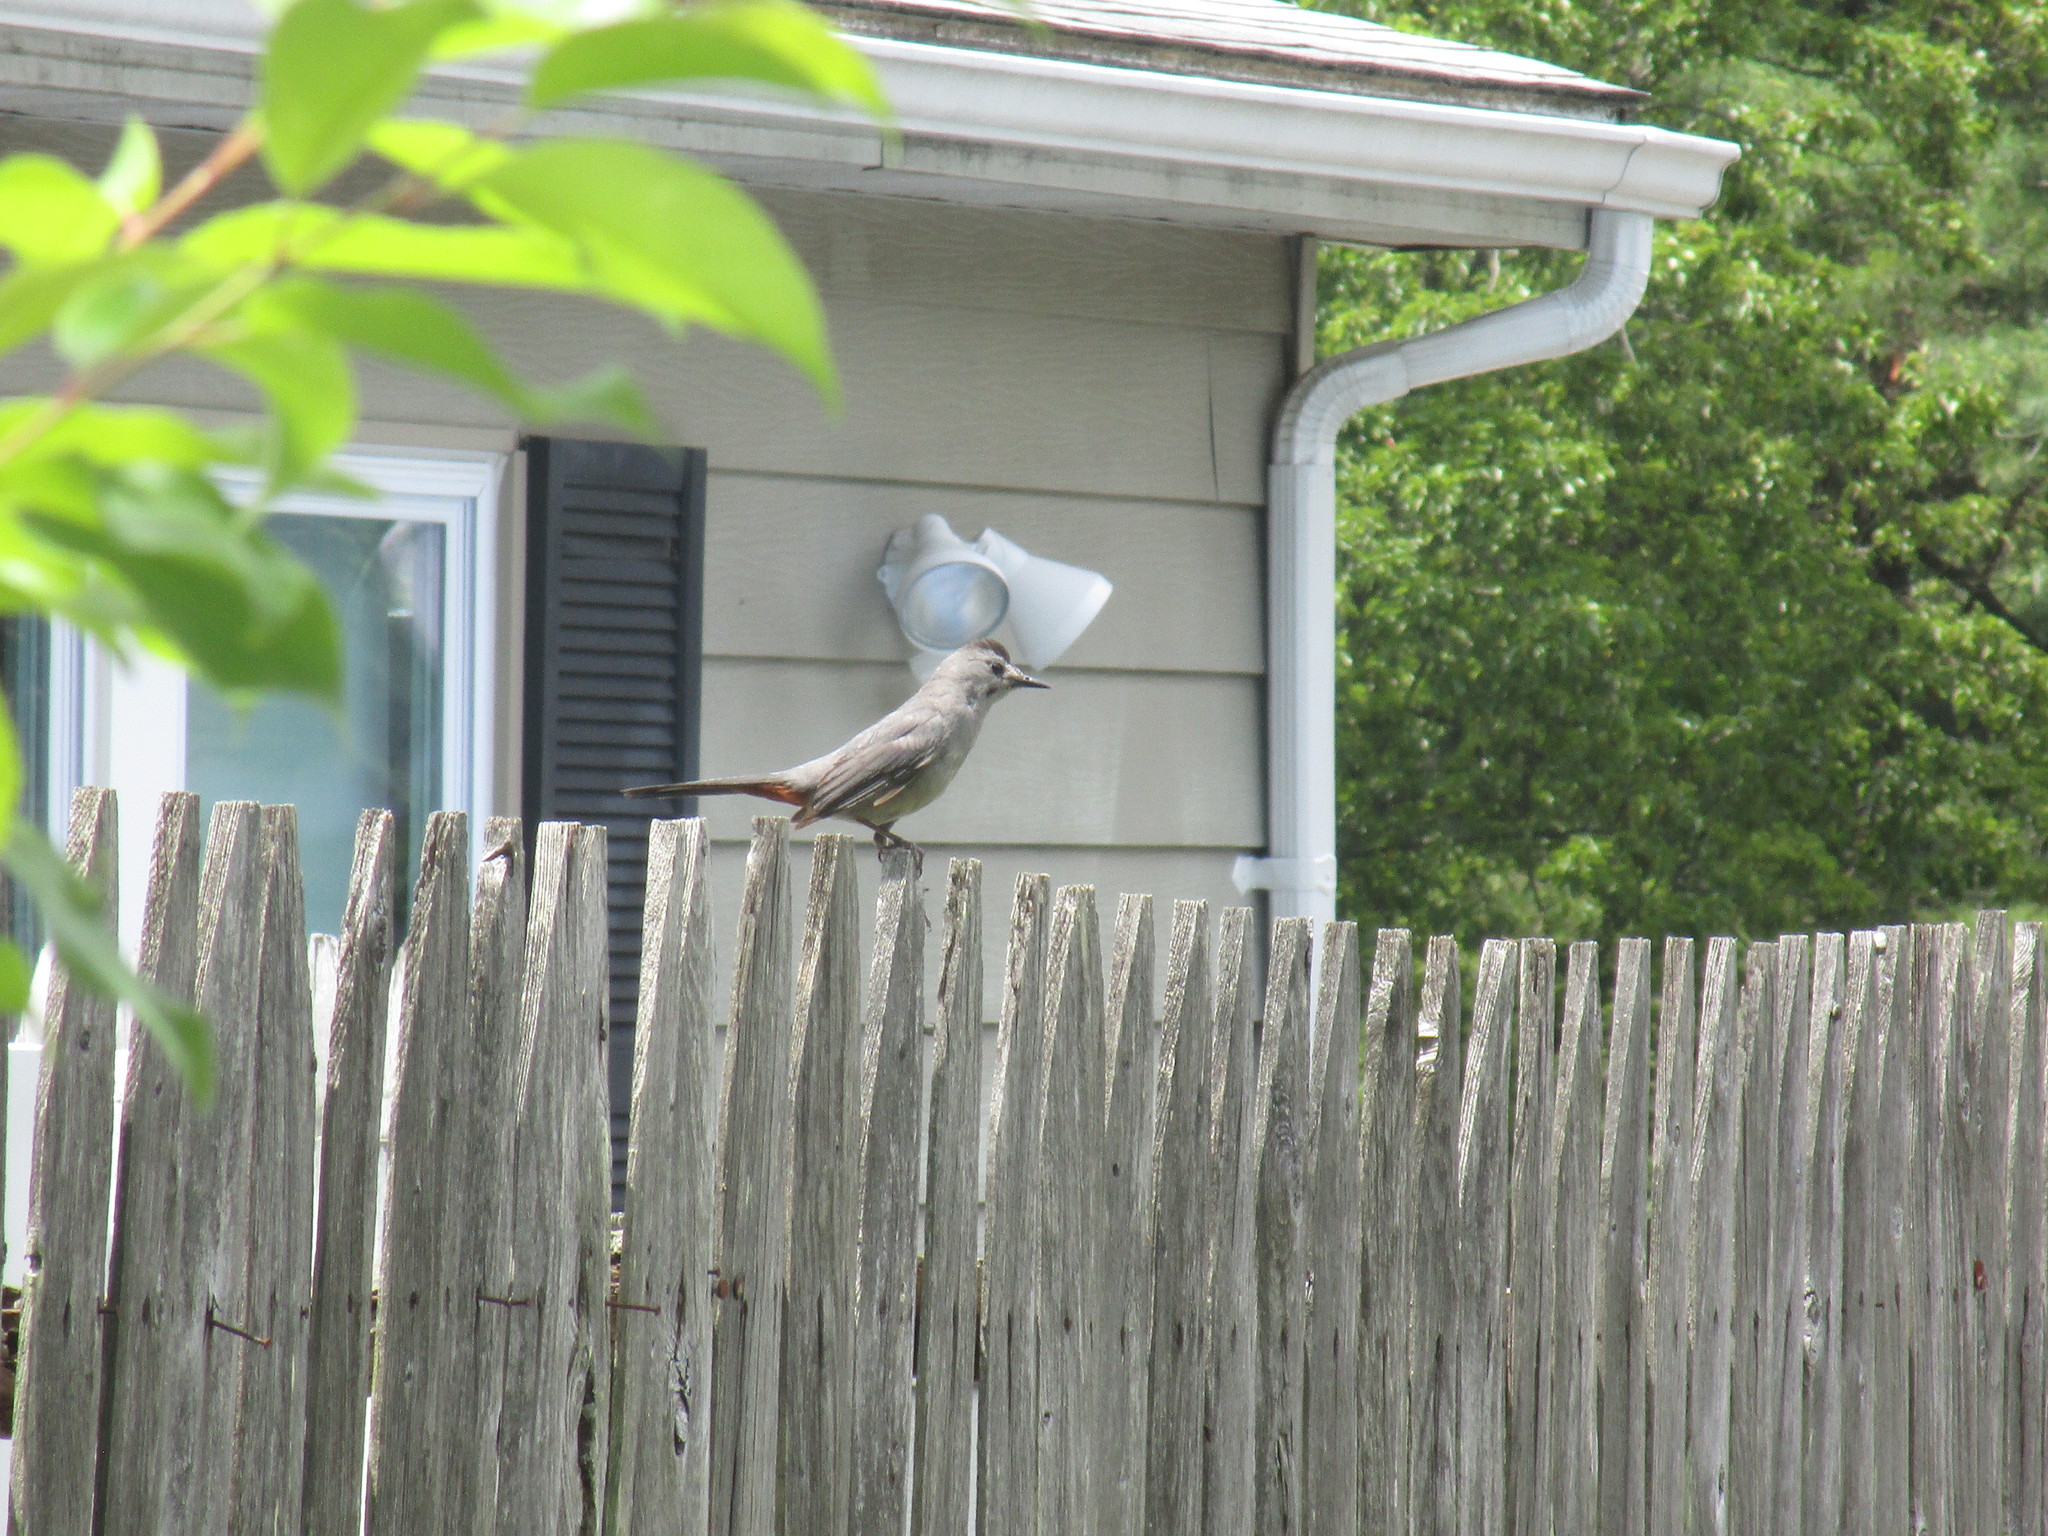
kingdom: Animalia
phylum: Chordata
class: Aves
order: Passeriformes
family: Mimidae
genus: Dumetella
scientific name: Dumetella carolinensis
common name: Gray catbird
